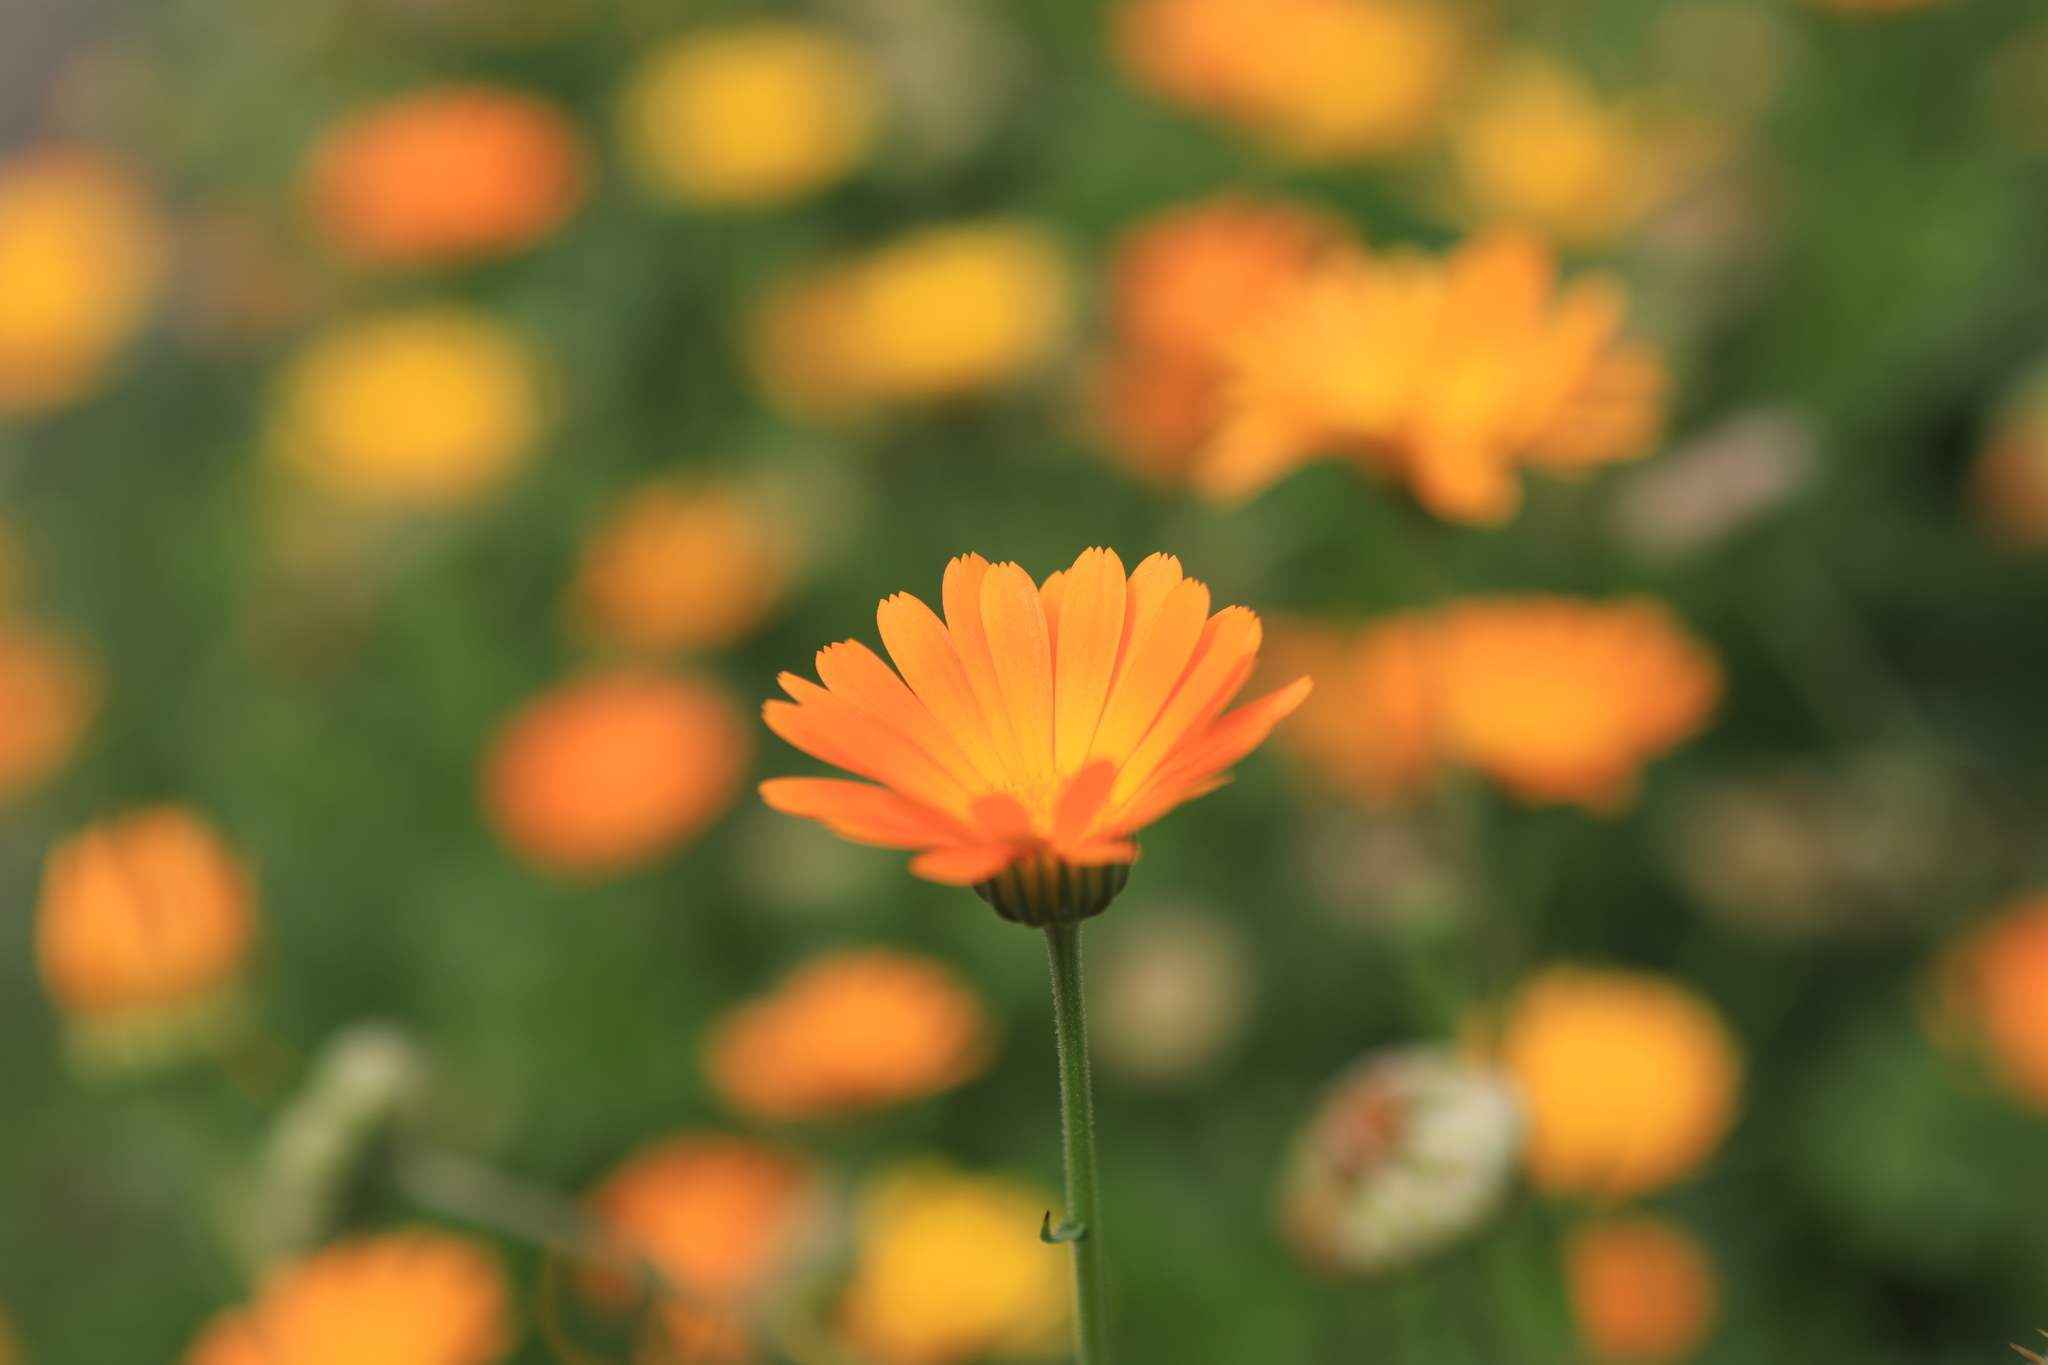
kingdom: Plantae
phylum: Tracheophyta
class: Magnoliopsida
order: Asterales
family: Asteraceae
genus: Calendula
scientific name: Calendula officinalis
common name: Pot marigold
